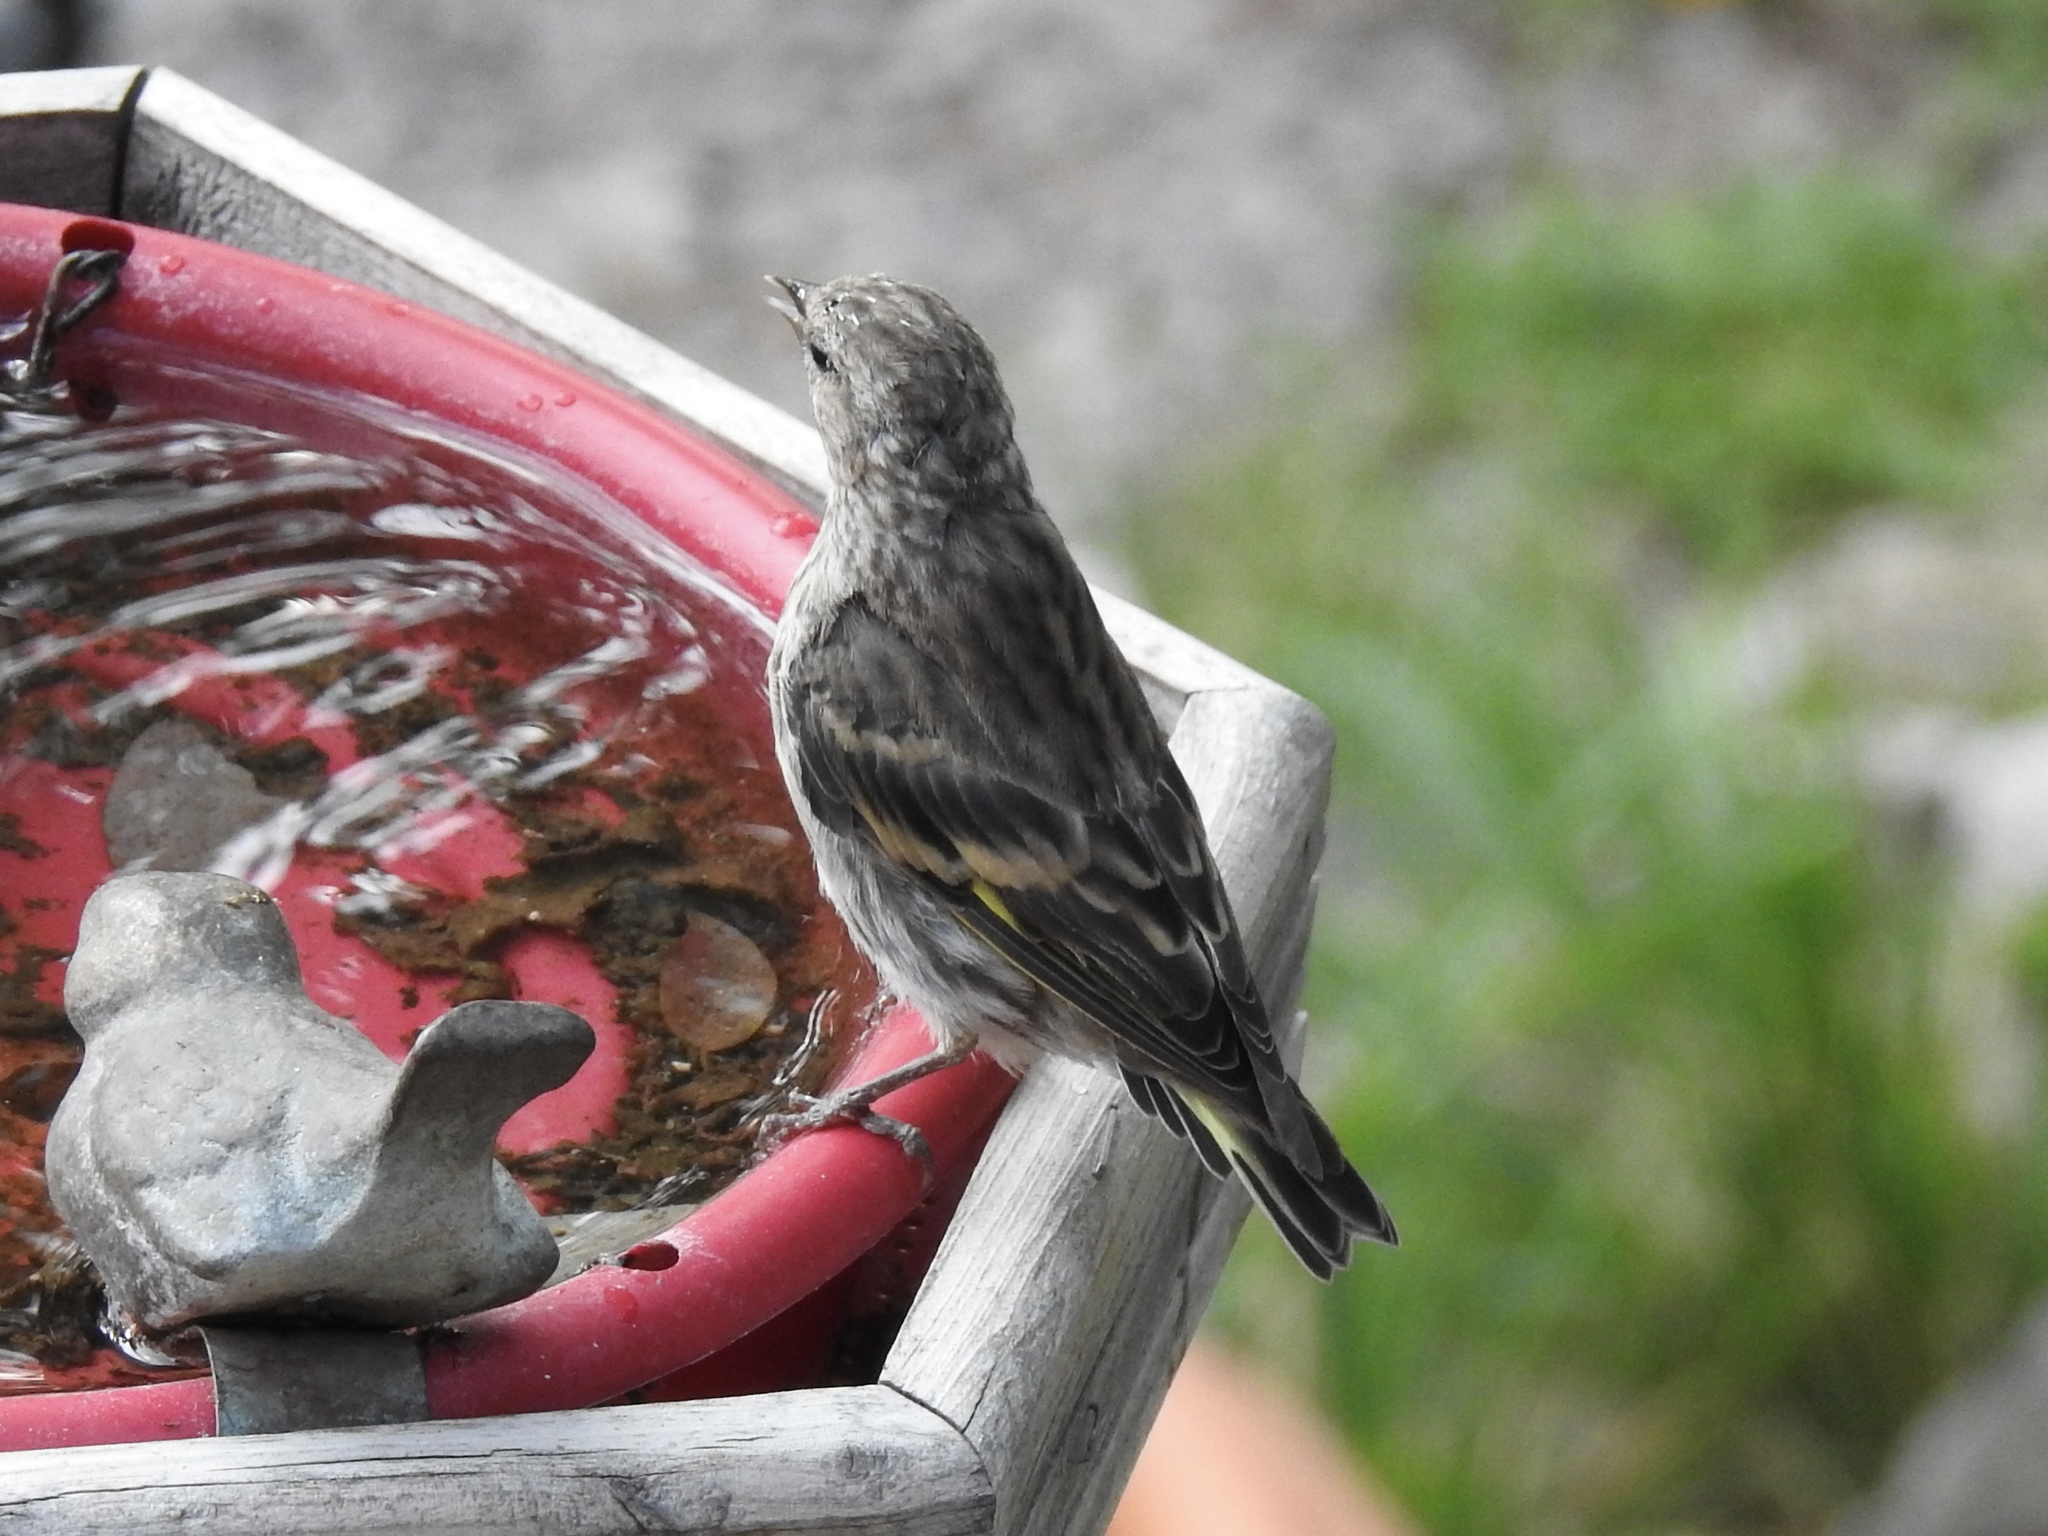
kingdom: Animalia
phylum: Chordata
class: Aves
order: Passeriformes
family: Fringillidae
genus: Spinus
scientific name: Spinus pinus
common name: Pine siskin
